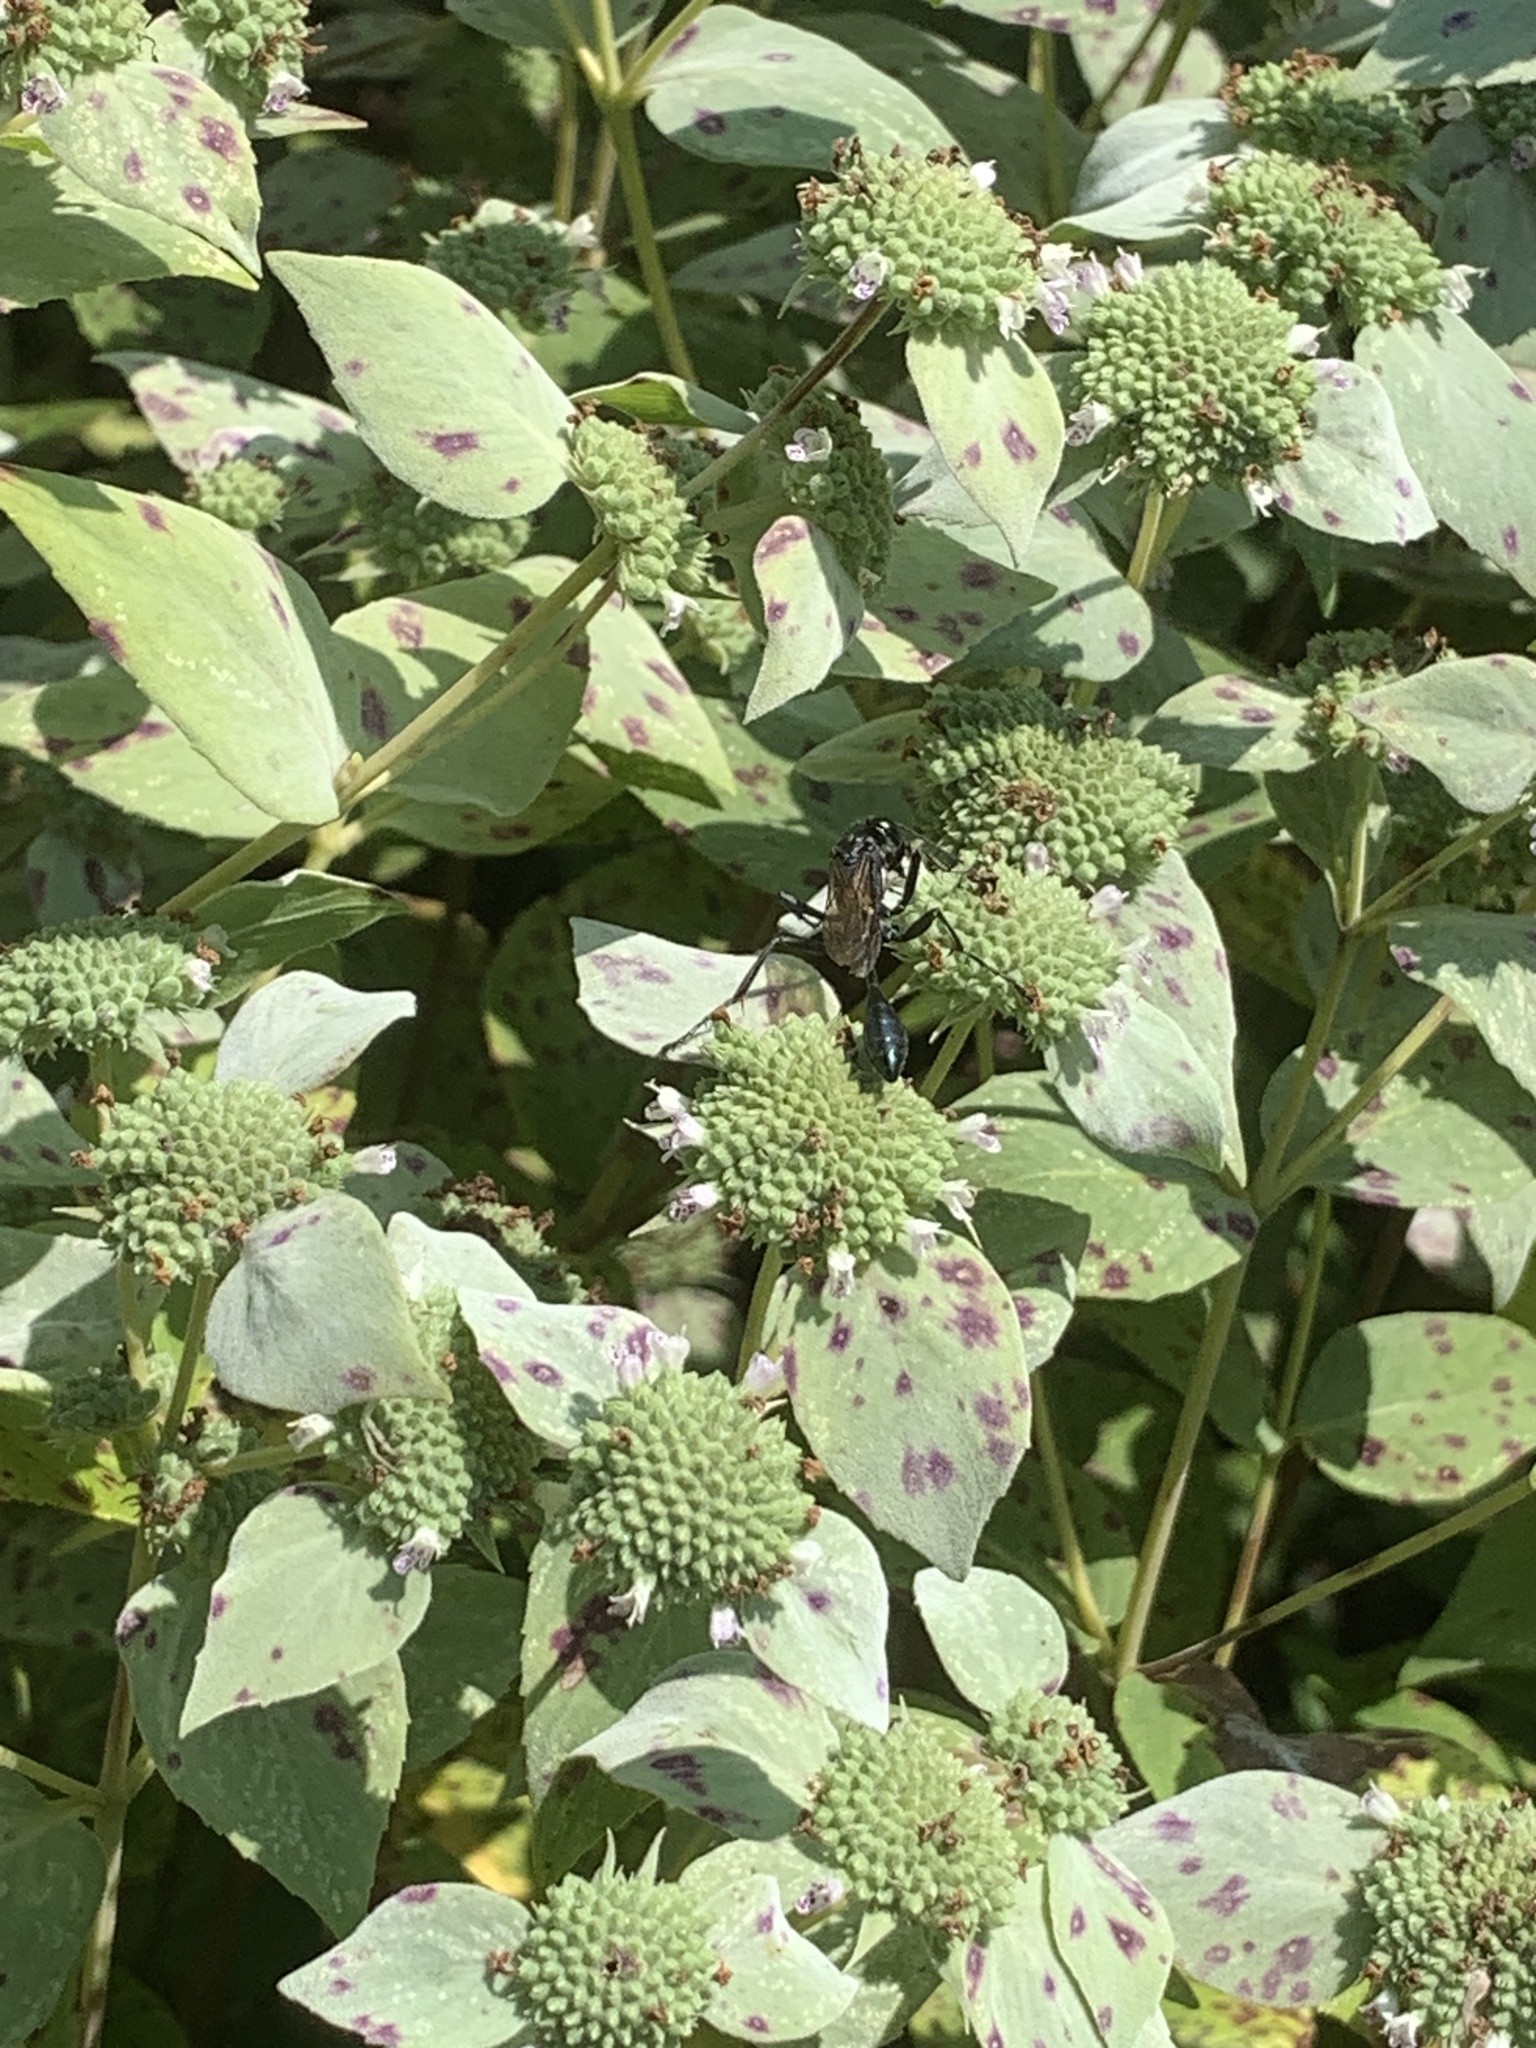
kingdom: Animalia
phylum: Arthropoda
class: Insecta
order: Hymenoptera
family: Sphecidae
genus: Eremnophila
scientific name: Eremnophila aureonotata
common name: Gold-marked thread-waisted wasp
